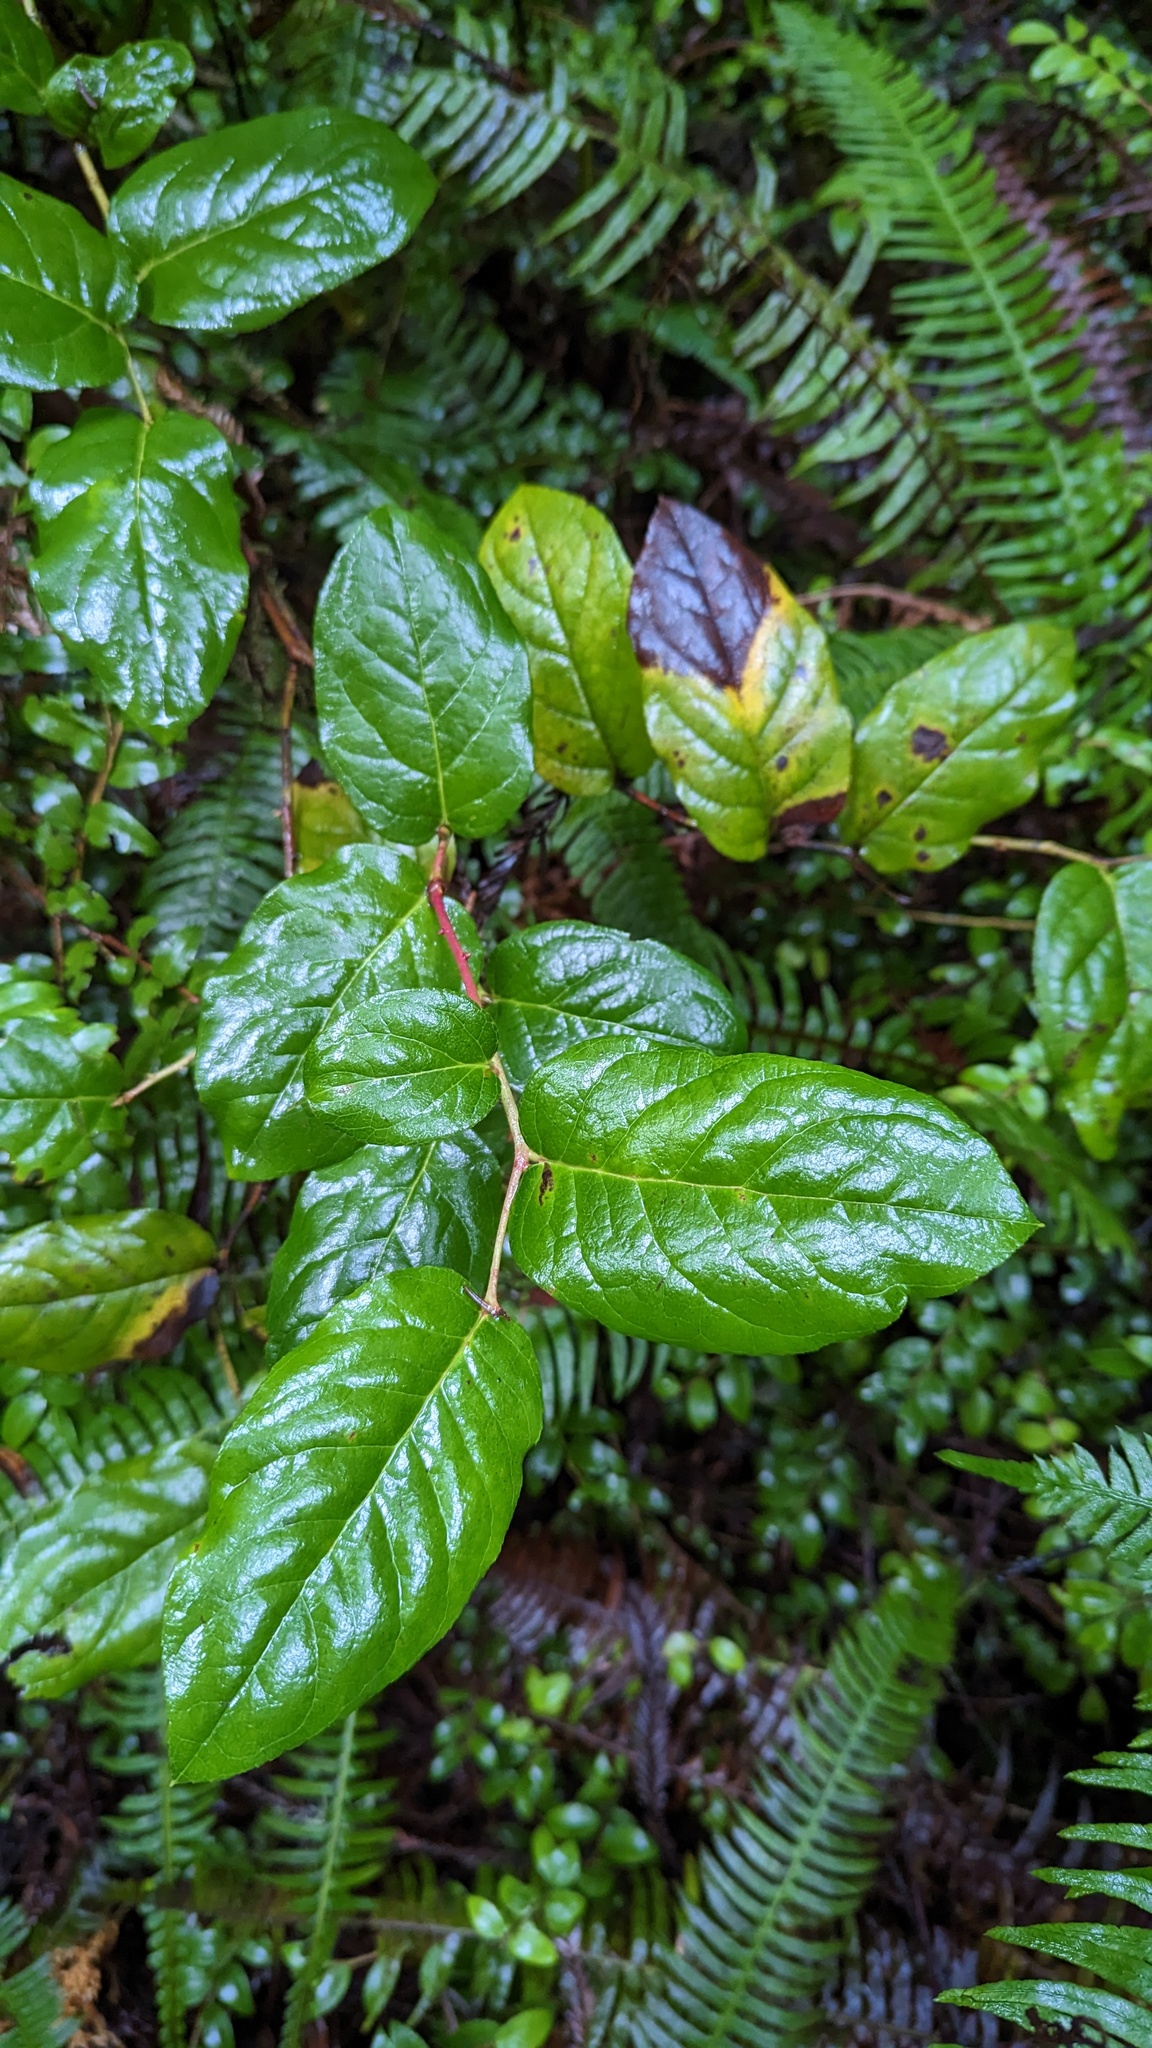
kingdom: Plantae
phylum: Tracheophyta
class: Magnoliopsida
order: Ericales
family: Ericaceae
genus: Gaultheria
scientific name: Gaultheria shallon
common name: Shallon
